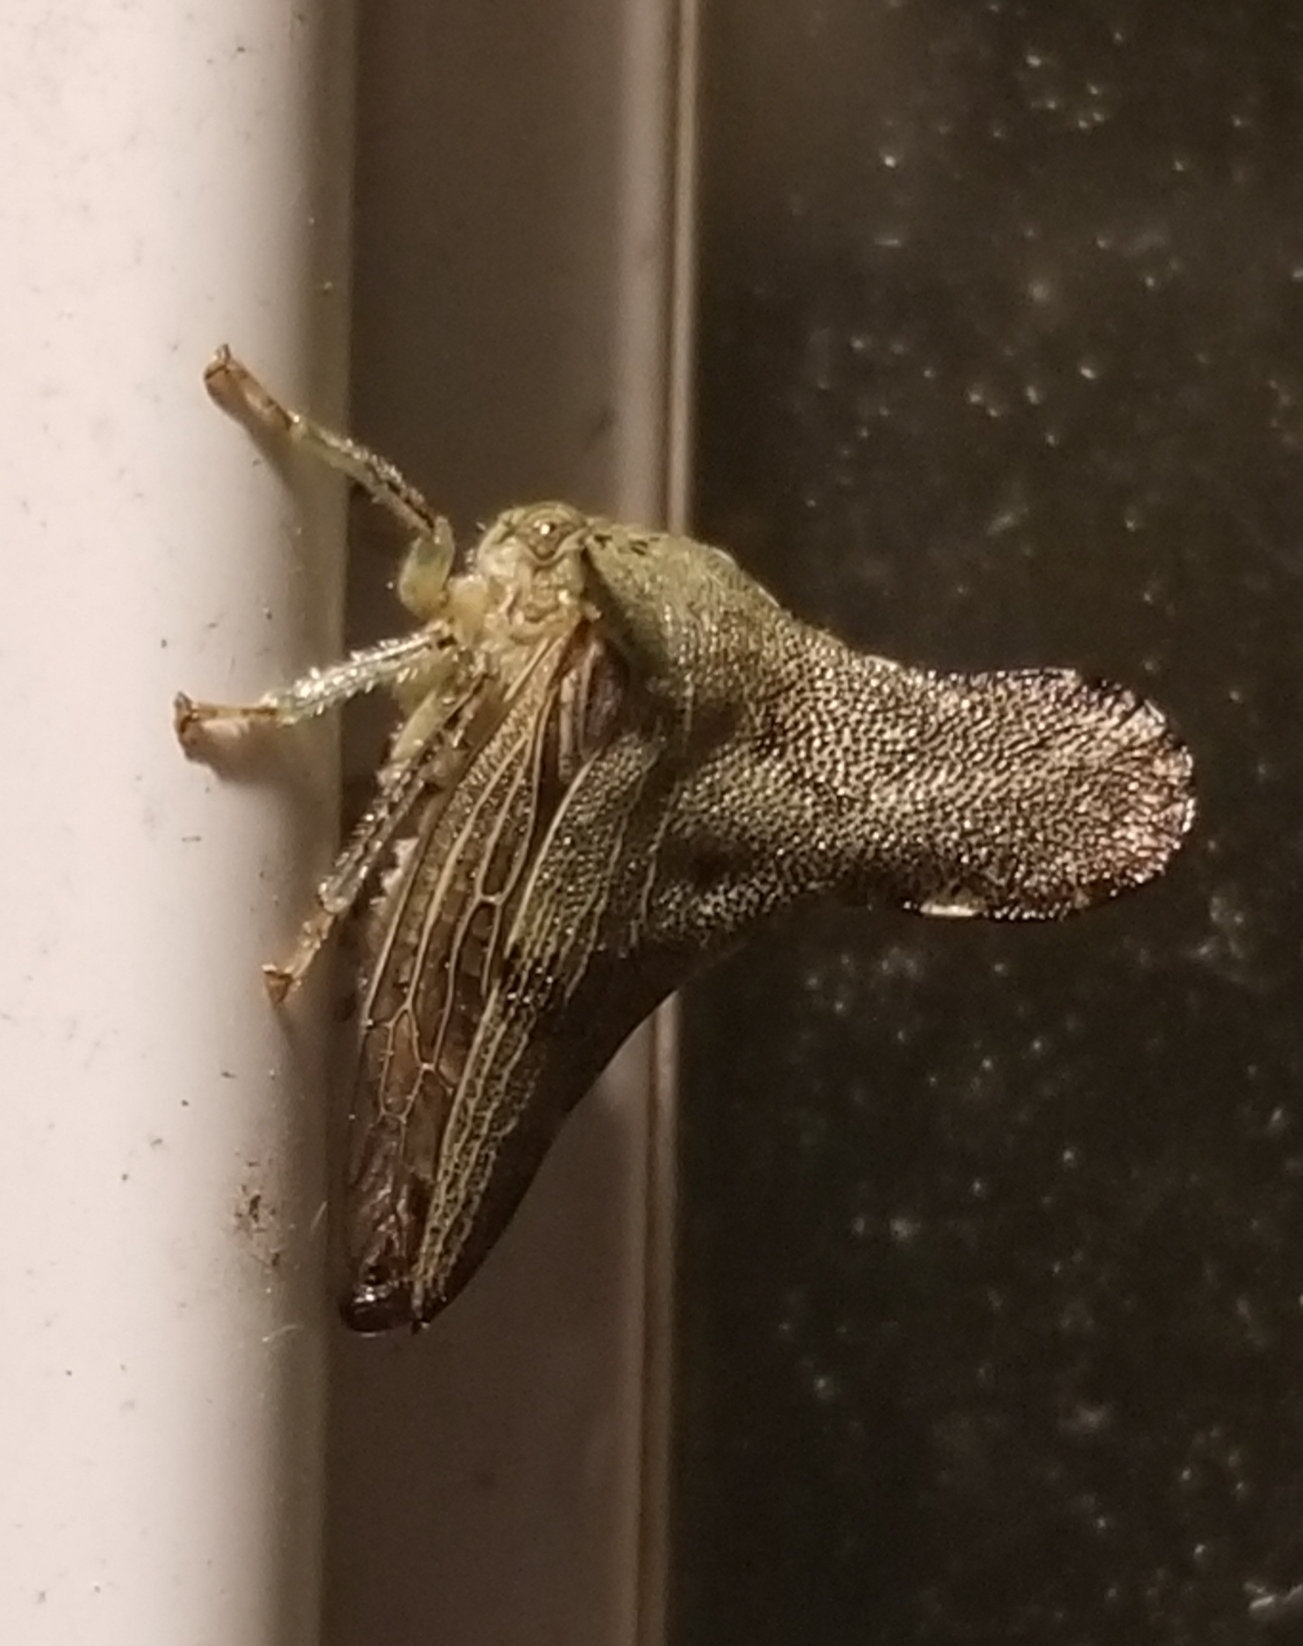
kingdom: Animalia
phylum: Arthropoda
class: Insecta
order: Lepidoptera
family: Crambidae
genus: Cnaphalocrocis
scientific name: Cnaphalocrocis Marasmia trapezalis
